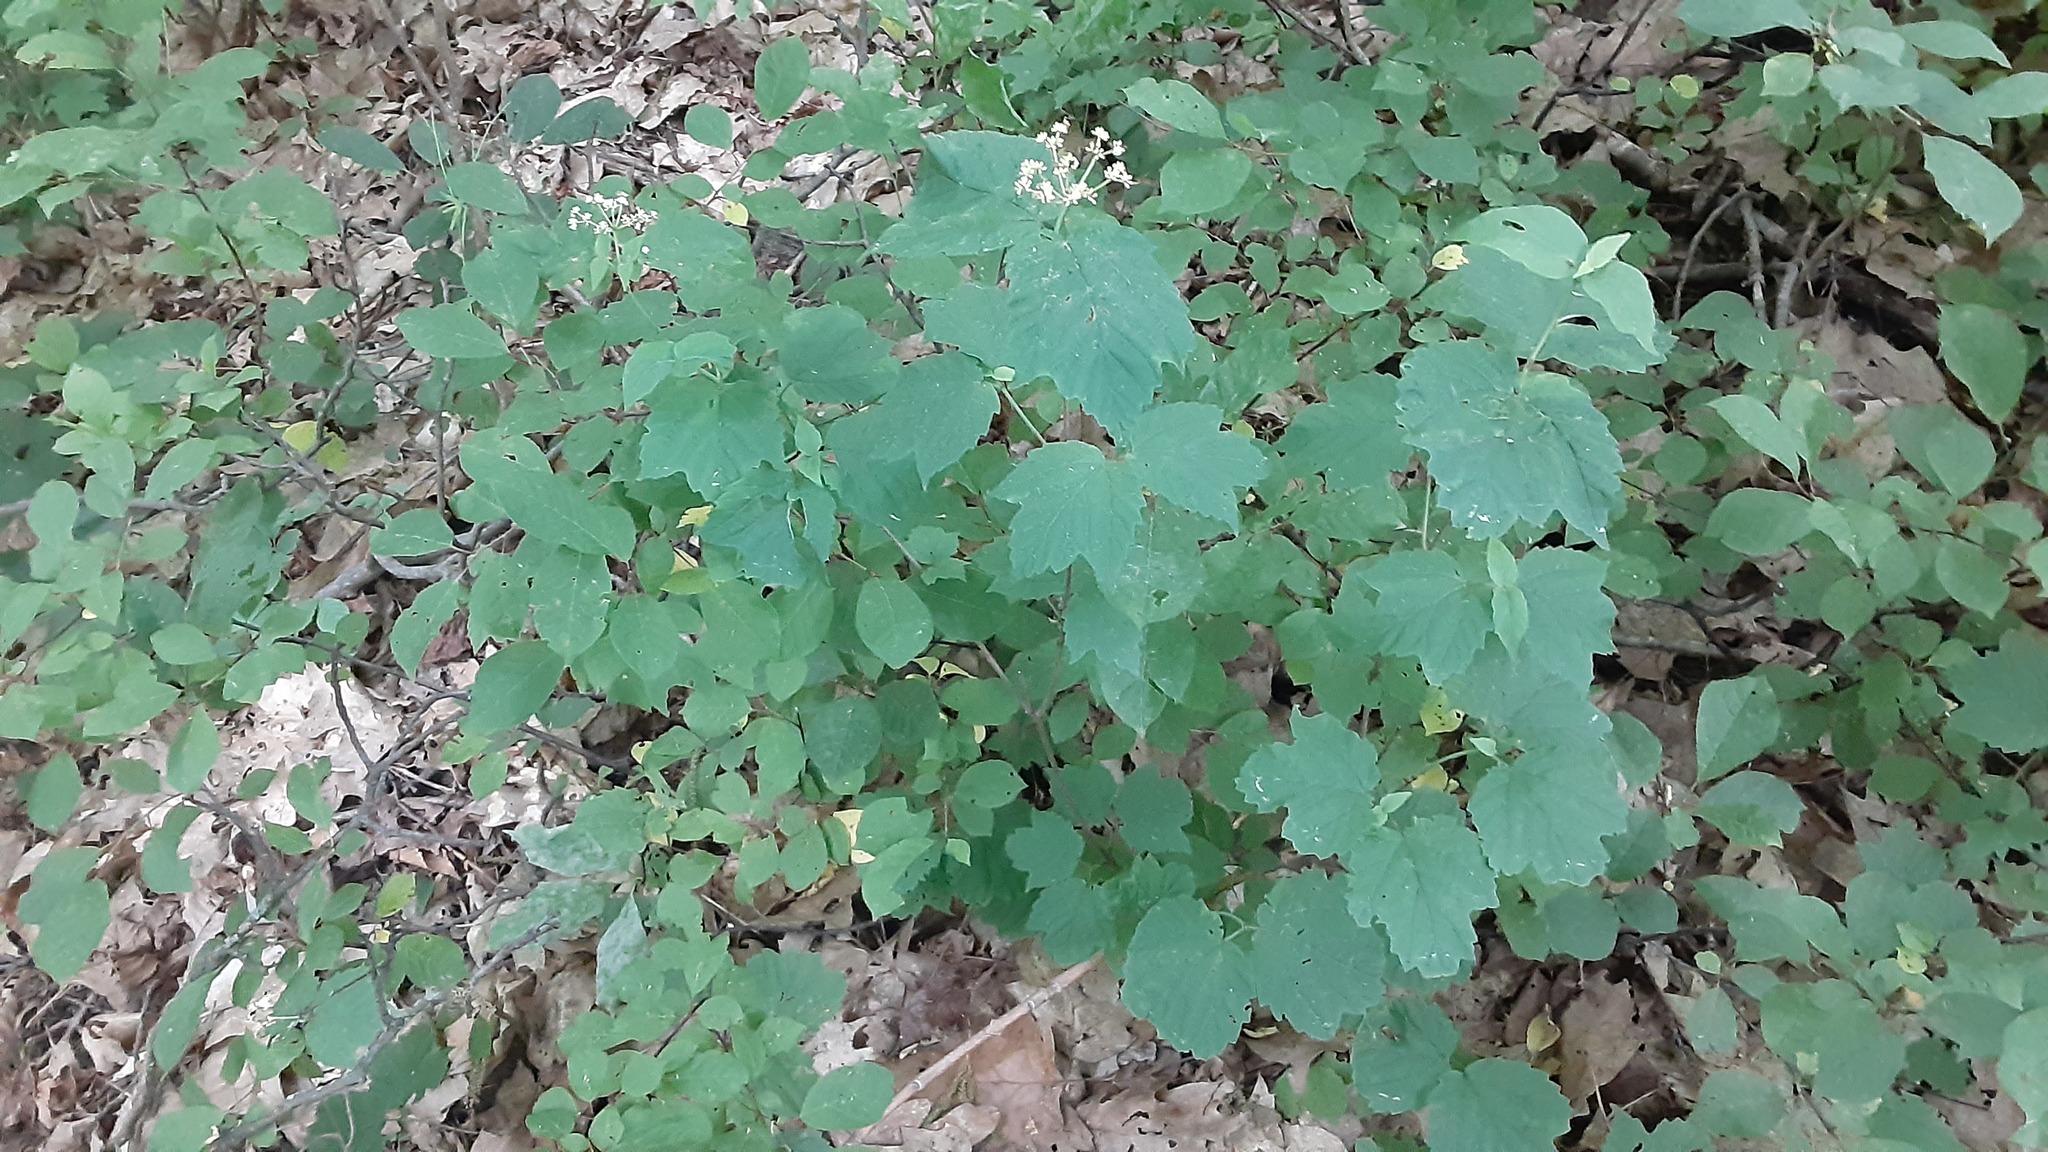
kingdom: Plantae
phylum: Tracheophyta
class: Magnoliopsida
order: Dipsacales
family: Viburnaceae
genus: Viburnum
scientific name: Viburnum acerifolium
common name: Dockmackie
